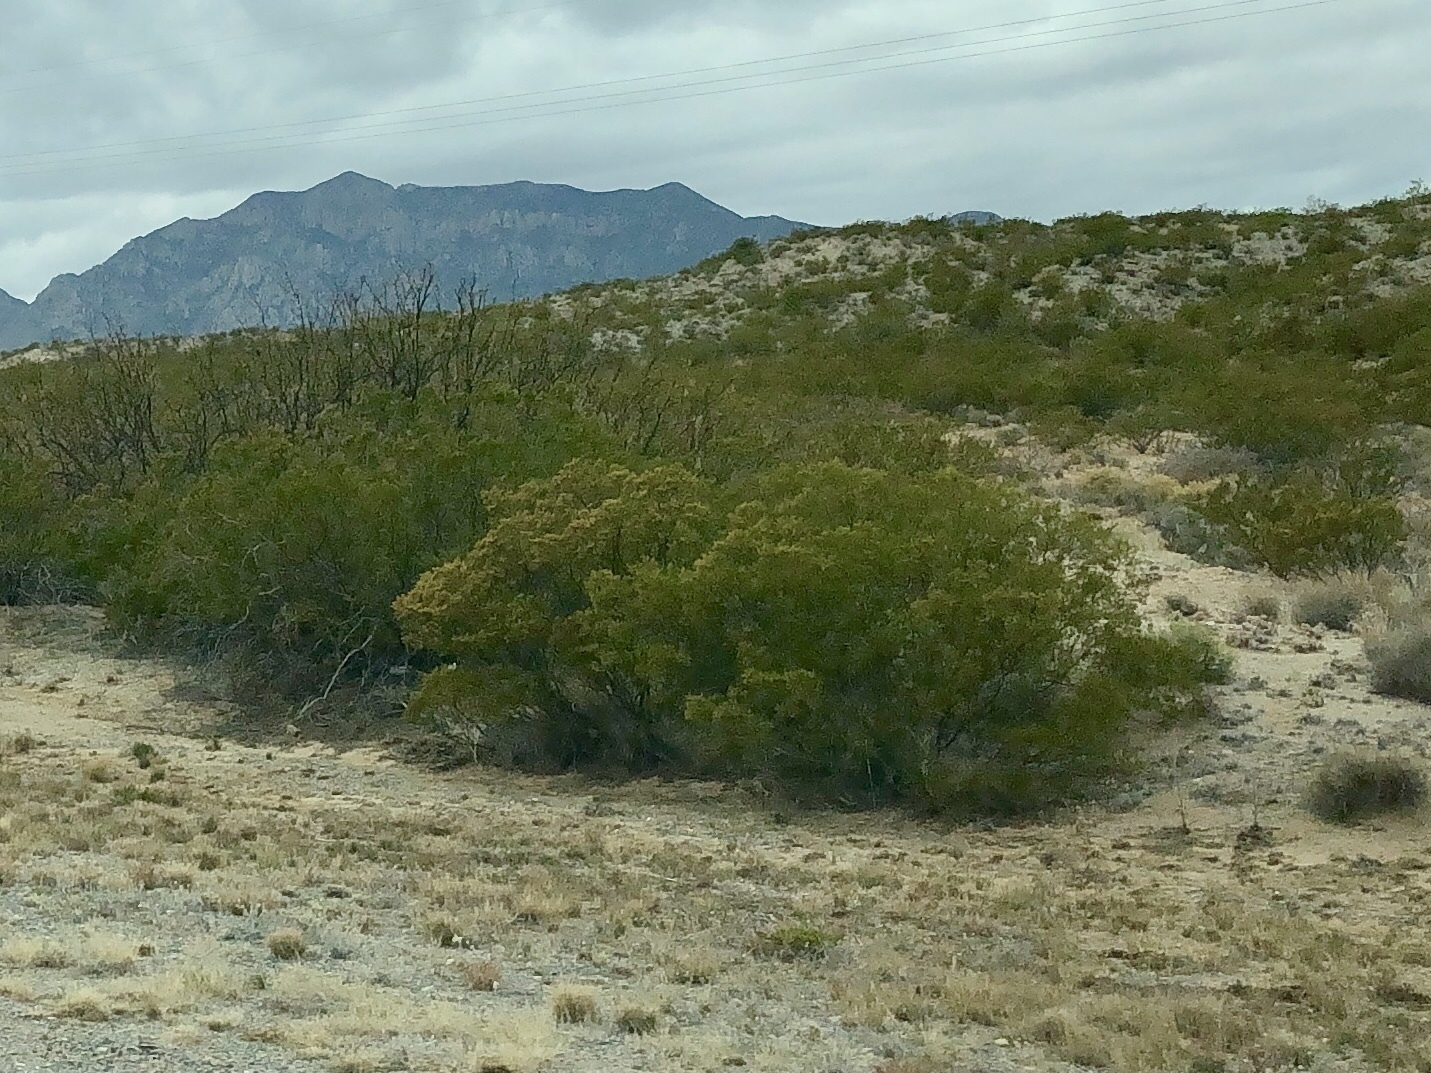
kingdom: Plantae
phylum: Tracheophyta
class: Magnoliopsida
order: Zygophyllales
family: Zygophyllaceae
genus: Larrea
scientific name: Larrea tridentata
